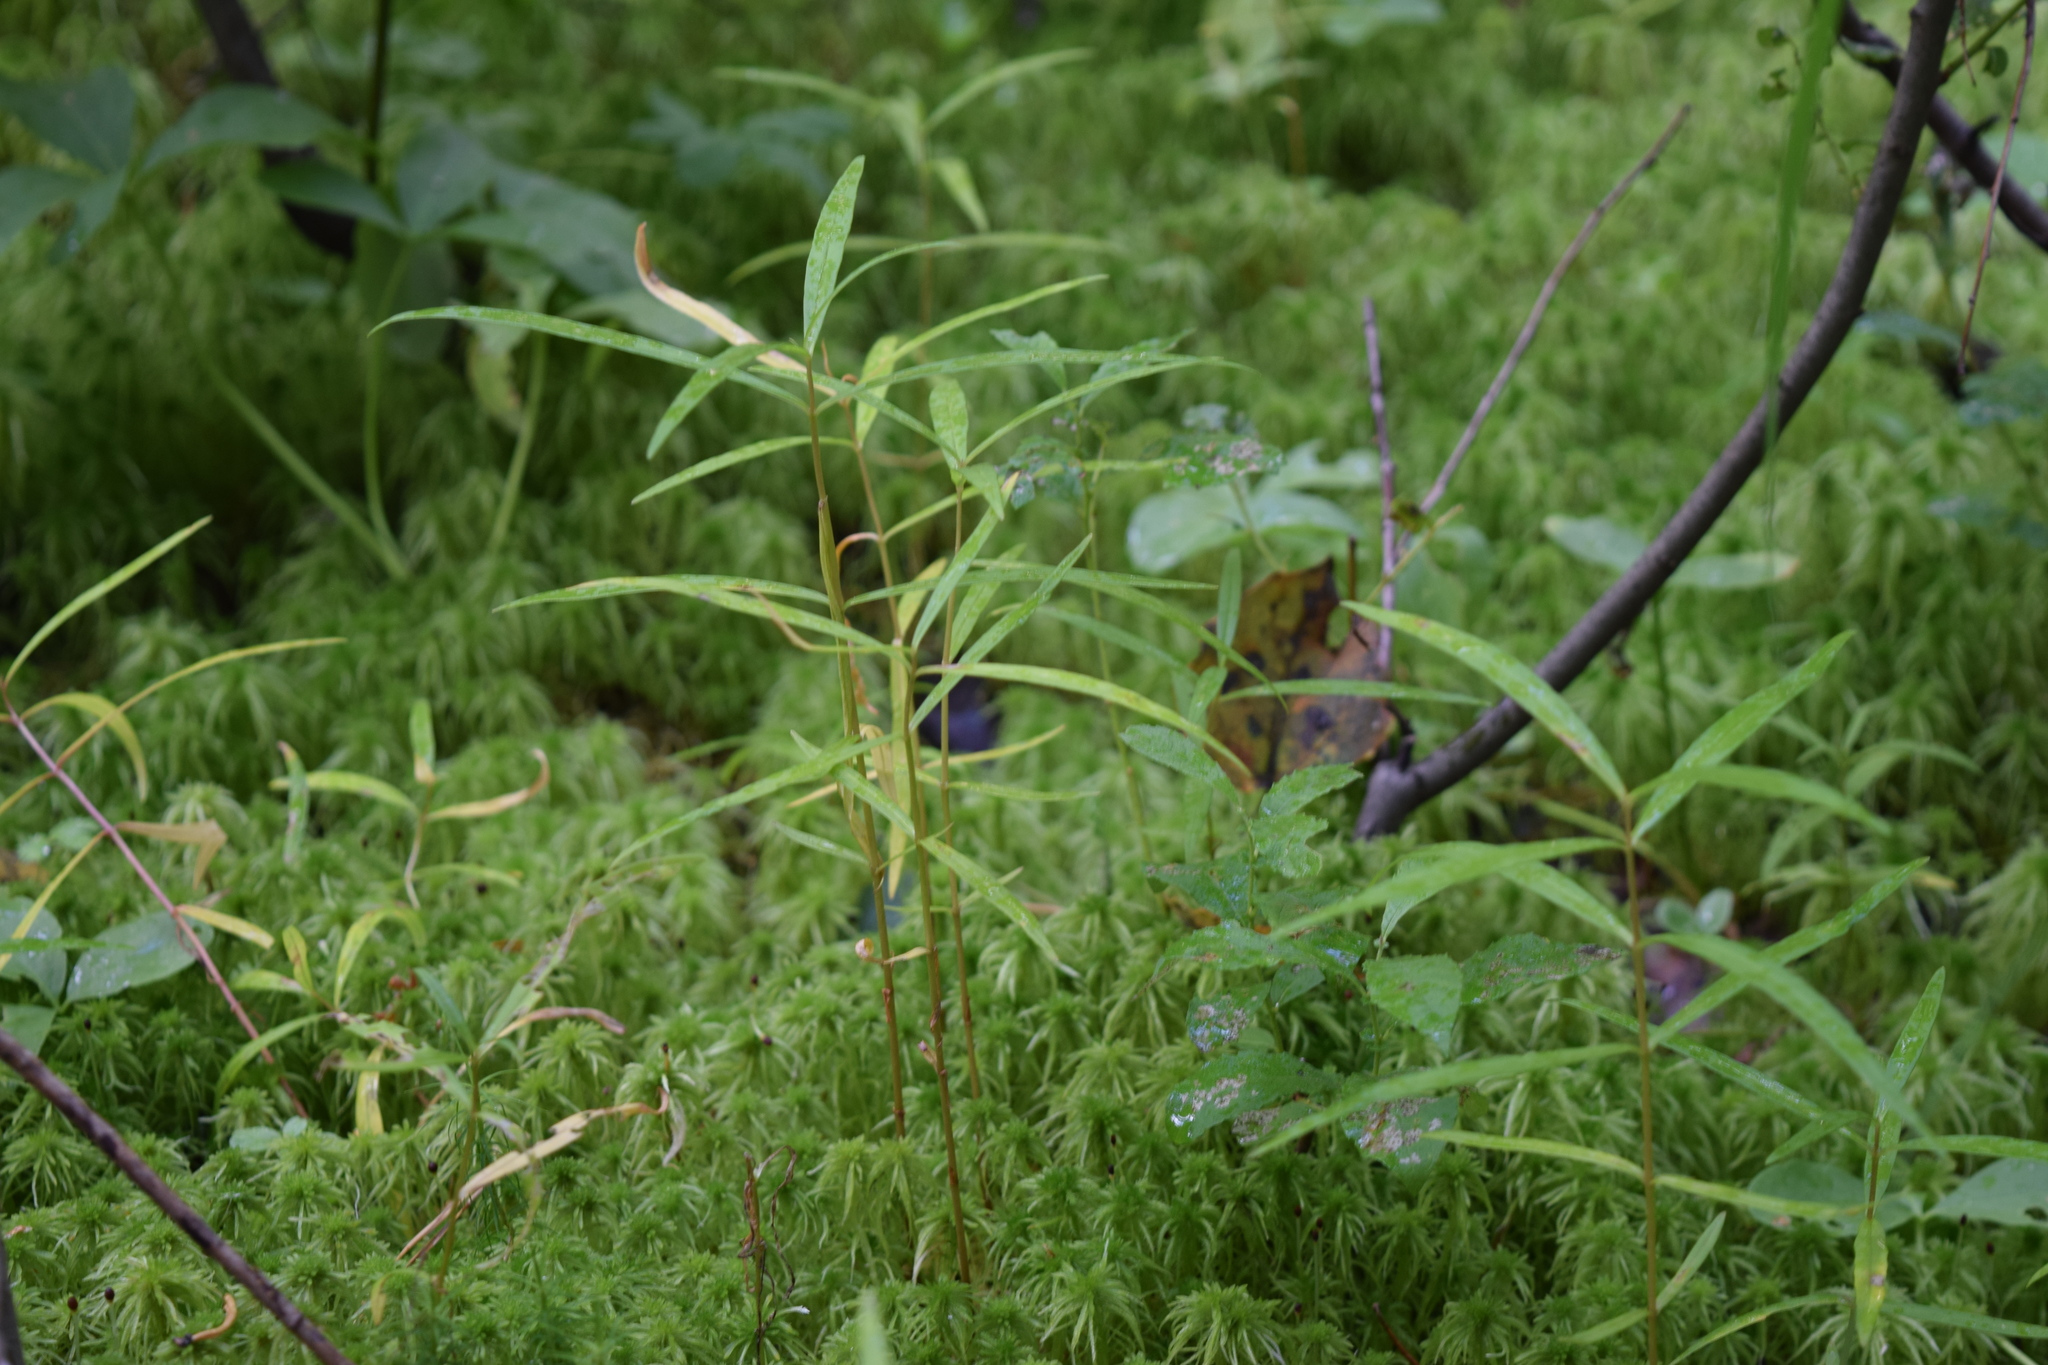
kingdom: Plantae
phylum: Tracheophyta
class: Magnoliopsida
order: Caryophyllales
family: Caryophyllaceae
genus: Rabelera
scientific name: Rabelera holostea
